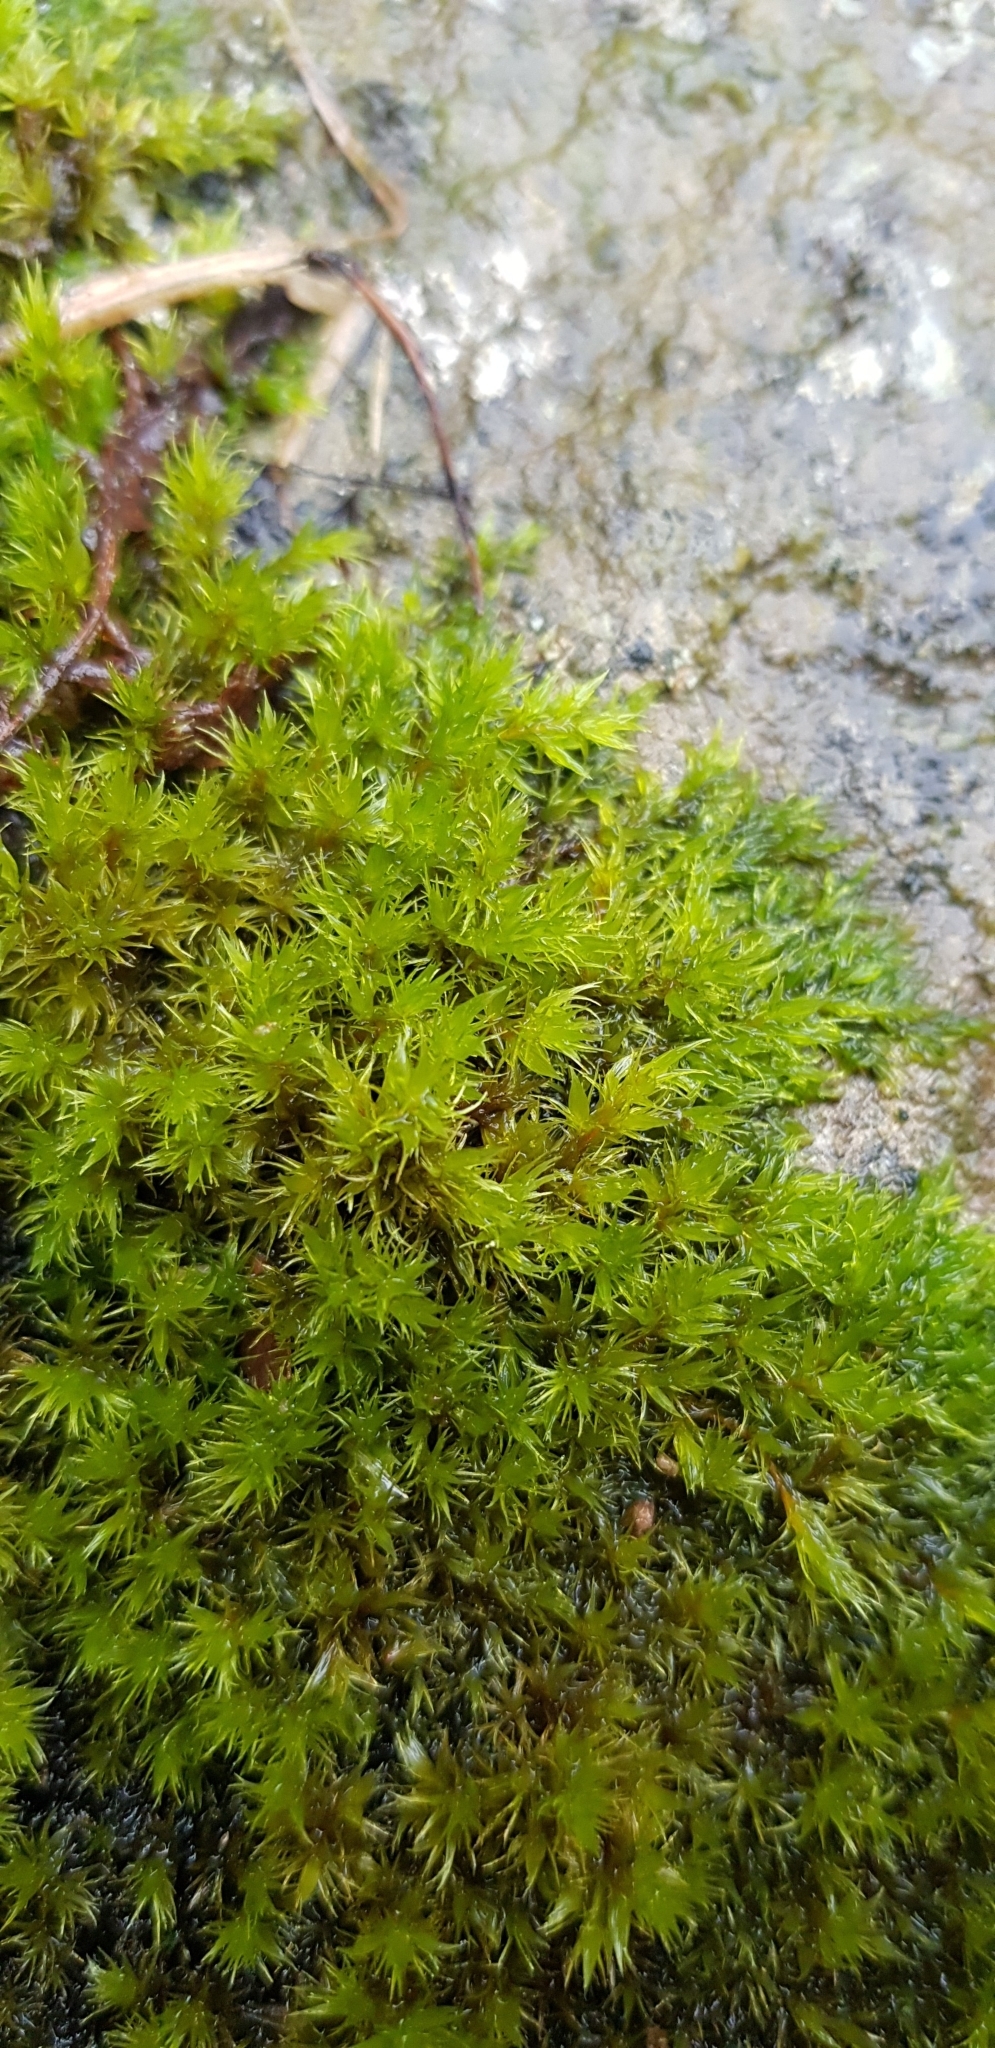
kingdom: Plantae
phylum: Bryophyta
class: Bryopsida
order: Grimmiales
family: Grimmiaceae
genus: Dilutineuron
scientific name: Dilutineuron fasciculare
